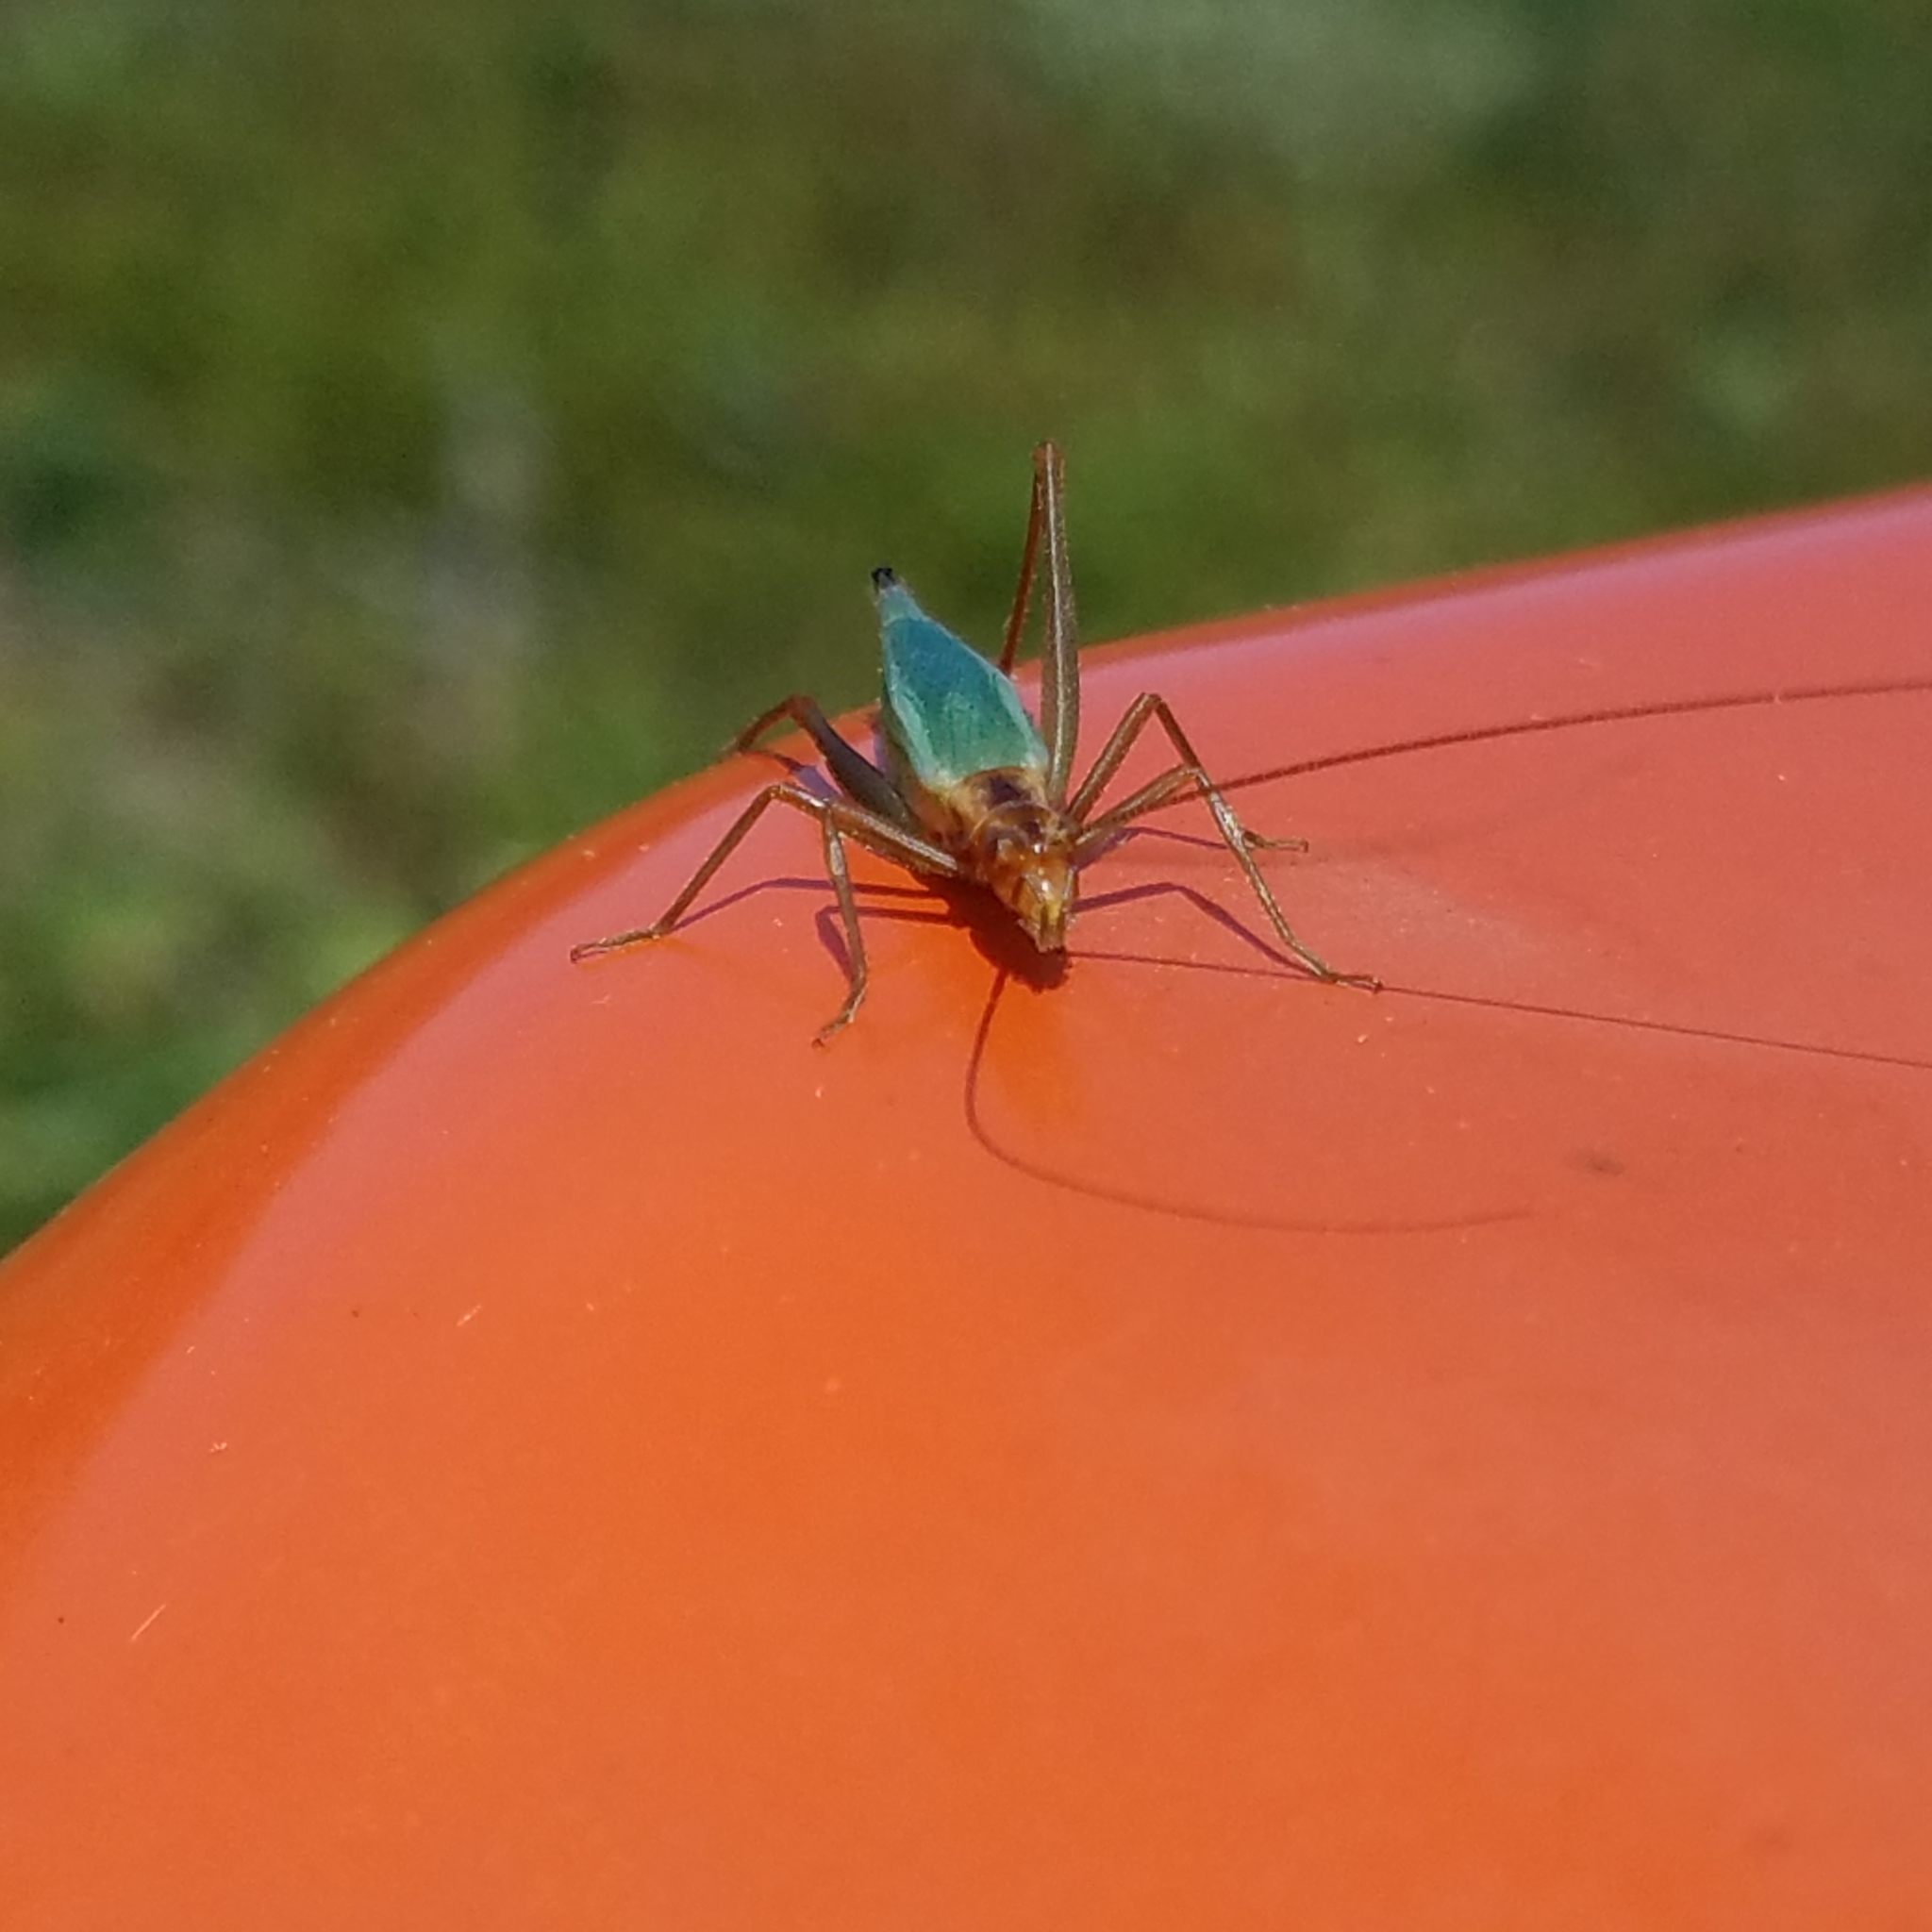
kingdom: Animalia
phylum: Arthropoda
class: Insecta
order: Orthoptera
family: Gryllidae
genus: Oecanthus
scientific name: Oecanthus pini
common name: Pine tree cricket
